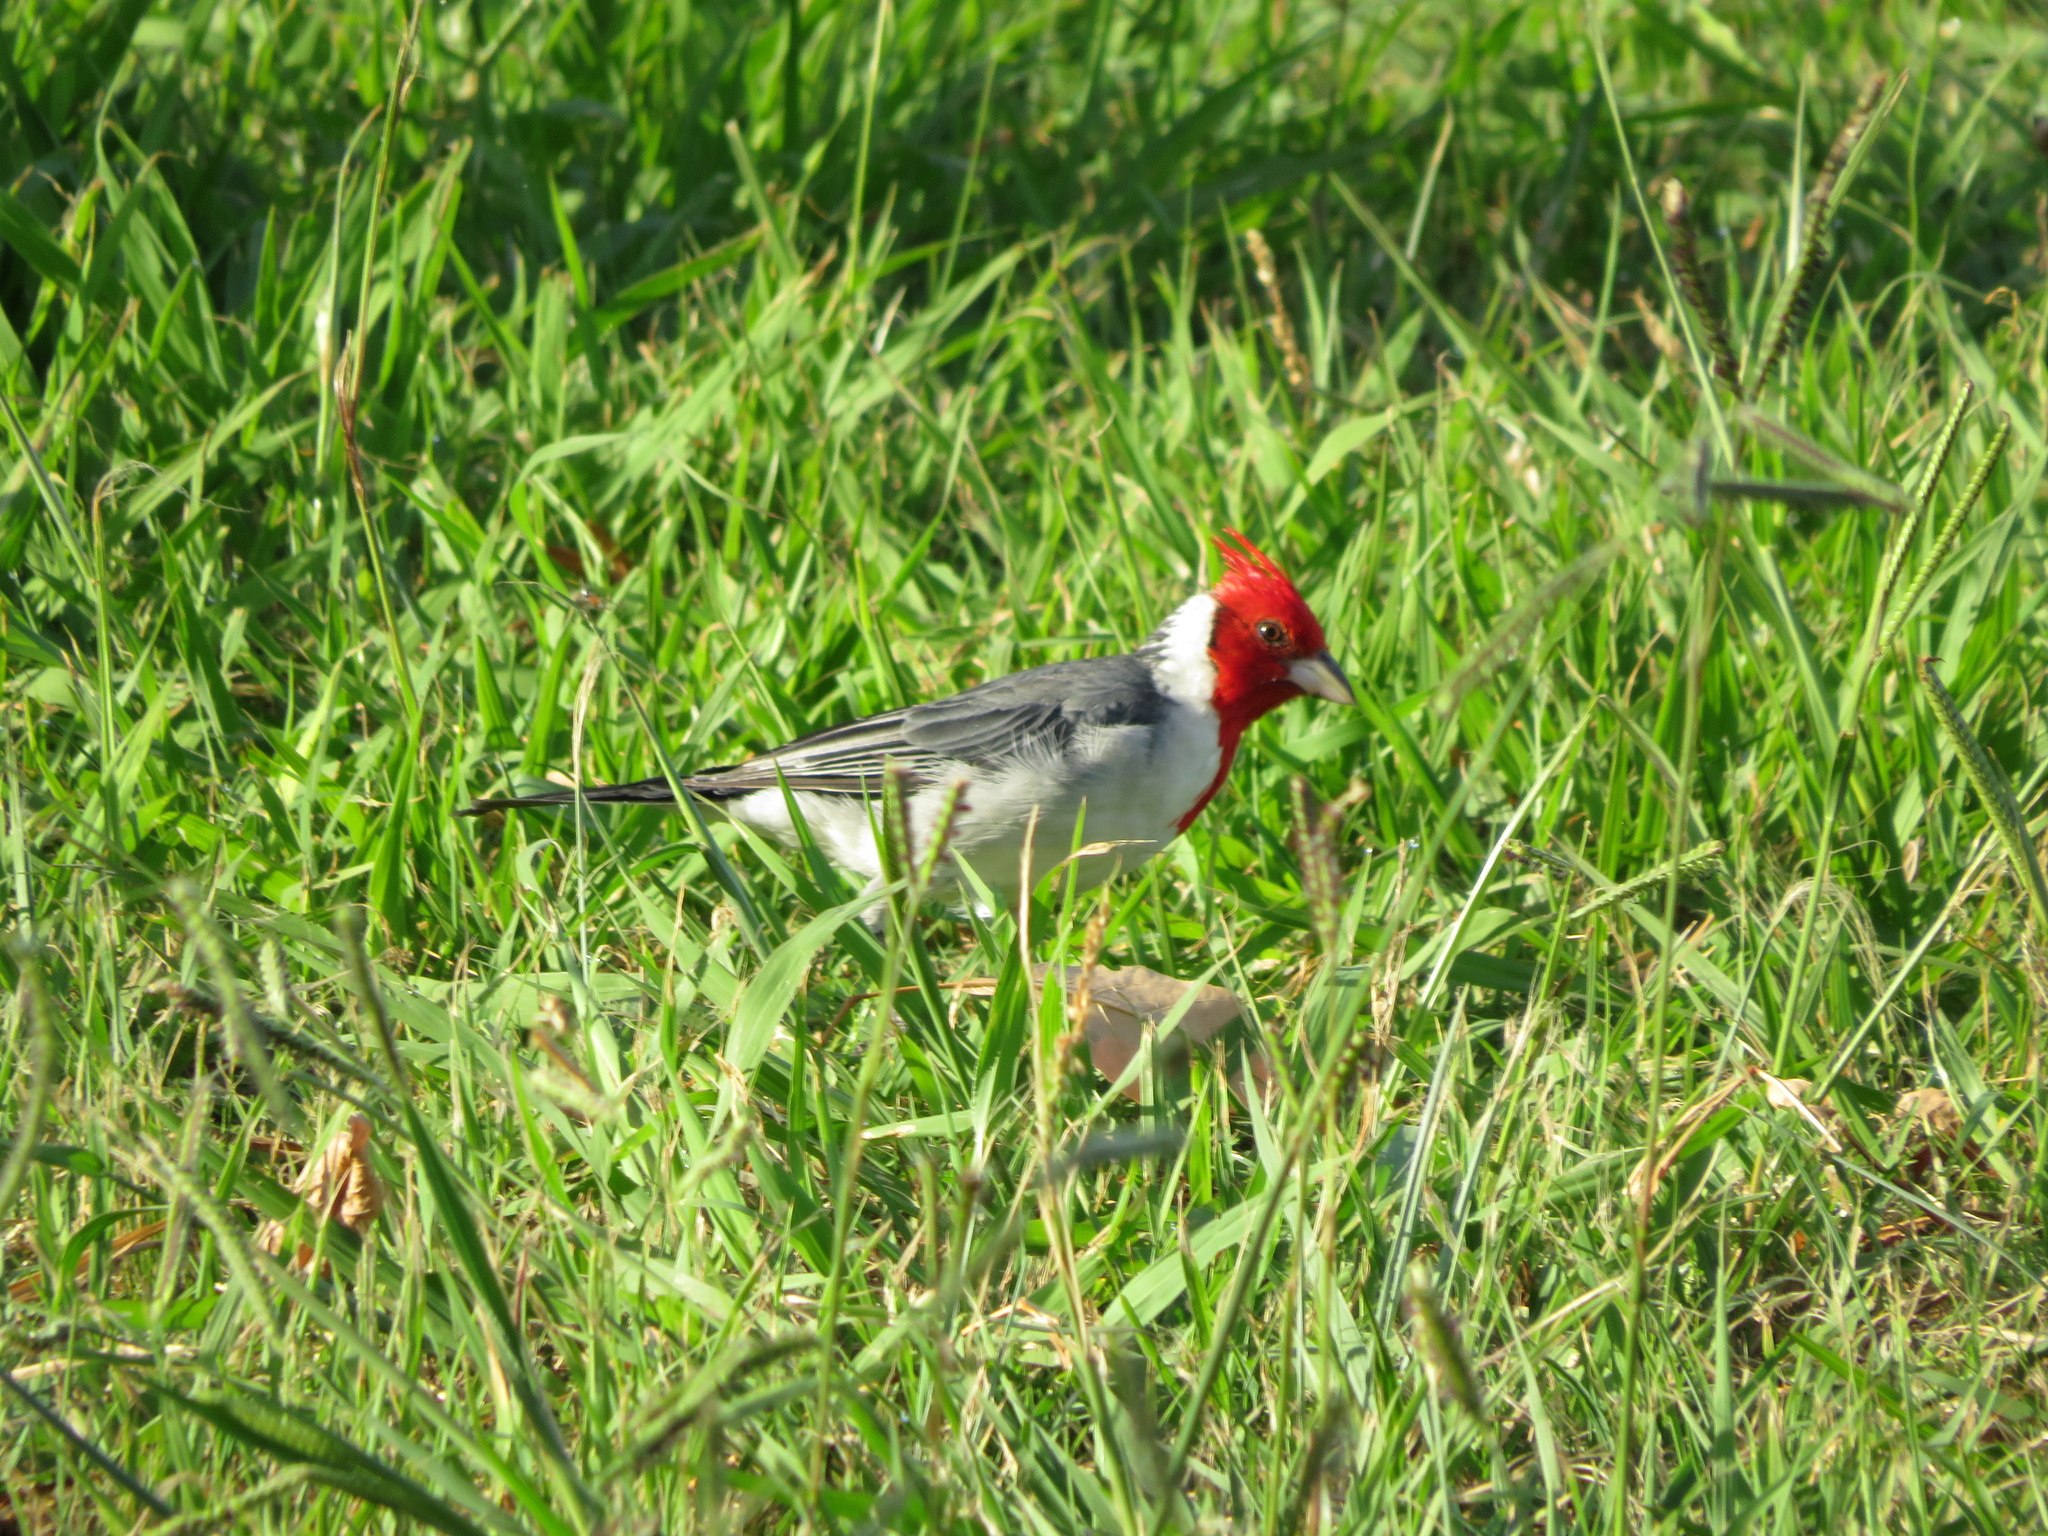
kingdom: Animalia
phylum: Chordata
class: Aves
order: Passeriformes
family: Thraupidae
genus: Paroaria
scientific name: Paroaria coronata
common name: Red-crested cardinal
